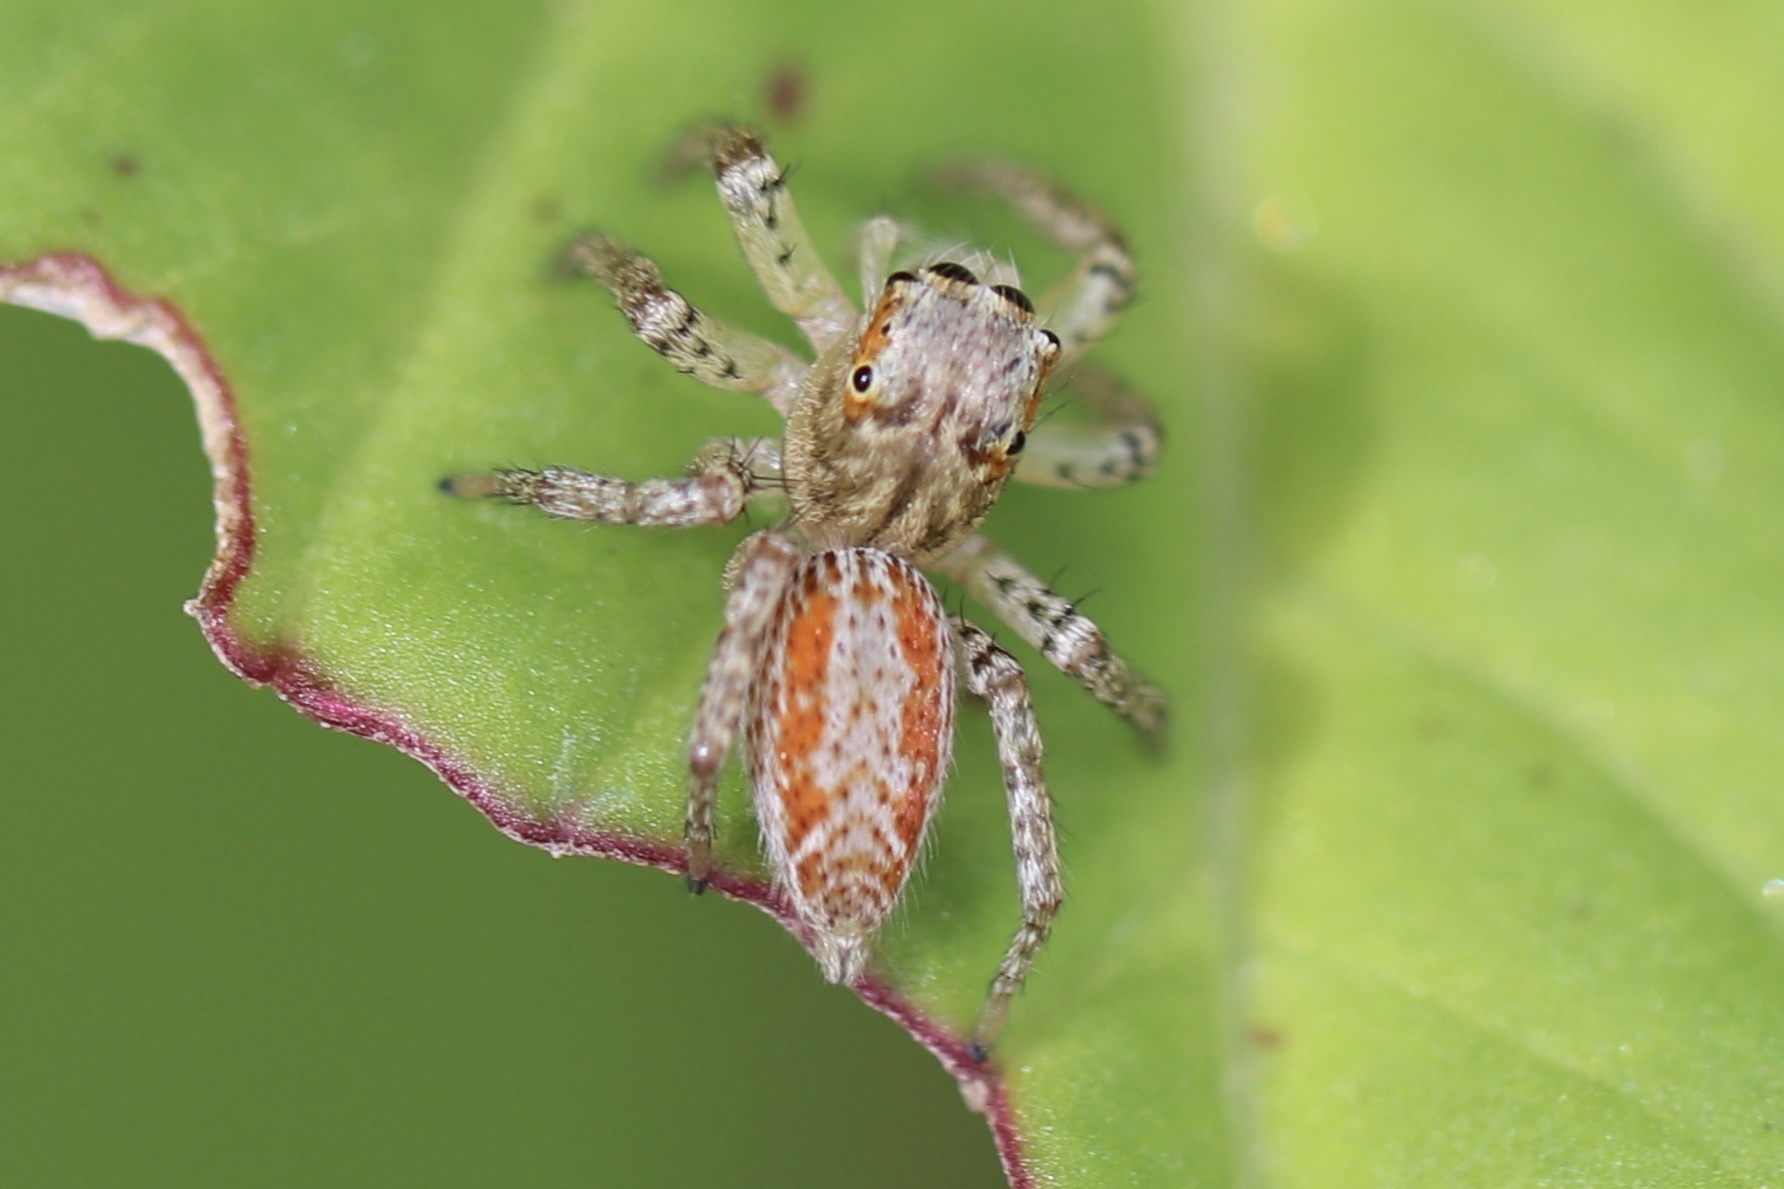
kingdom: Animalia
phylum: Arthropoda
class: Arachnida
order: Araneae
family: Salticidae
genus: Maevia
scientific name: Maevia inclemens
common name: Dimorphic jumper
